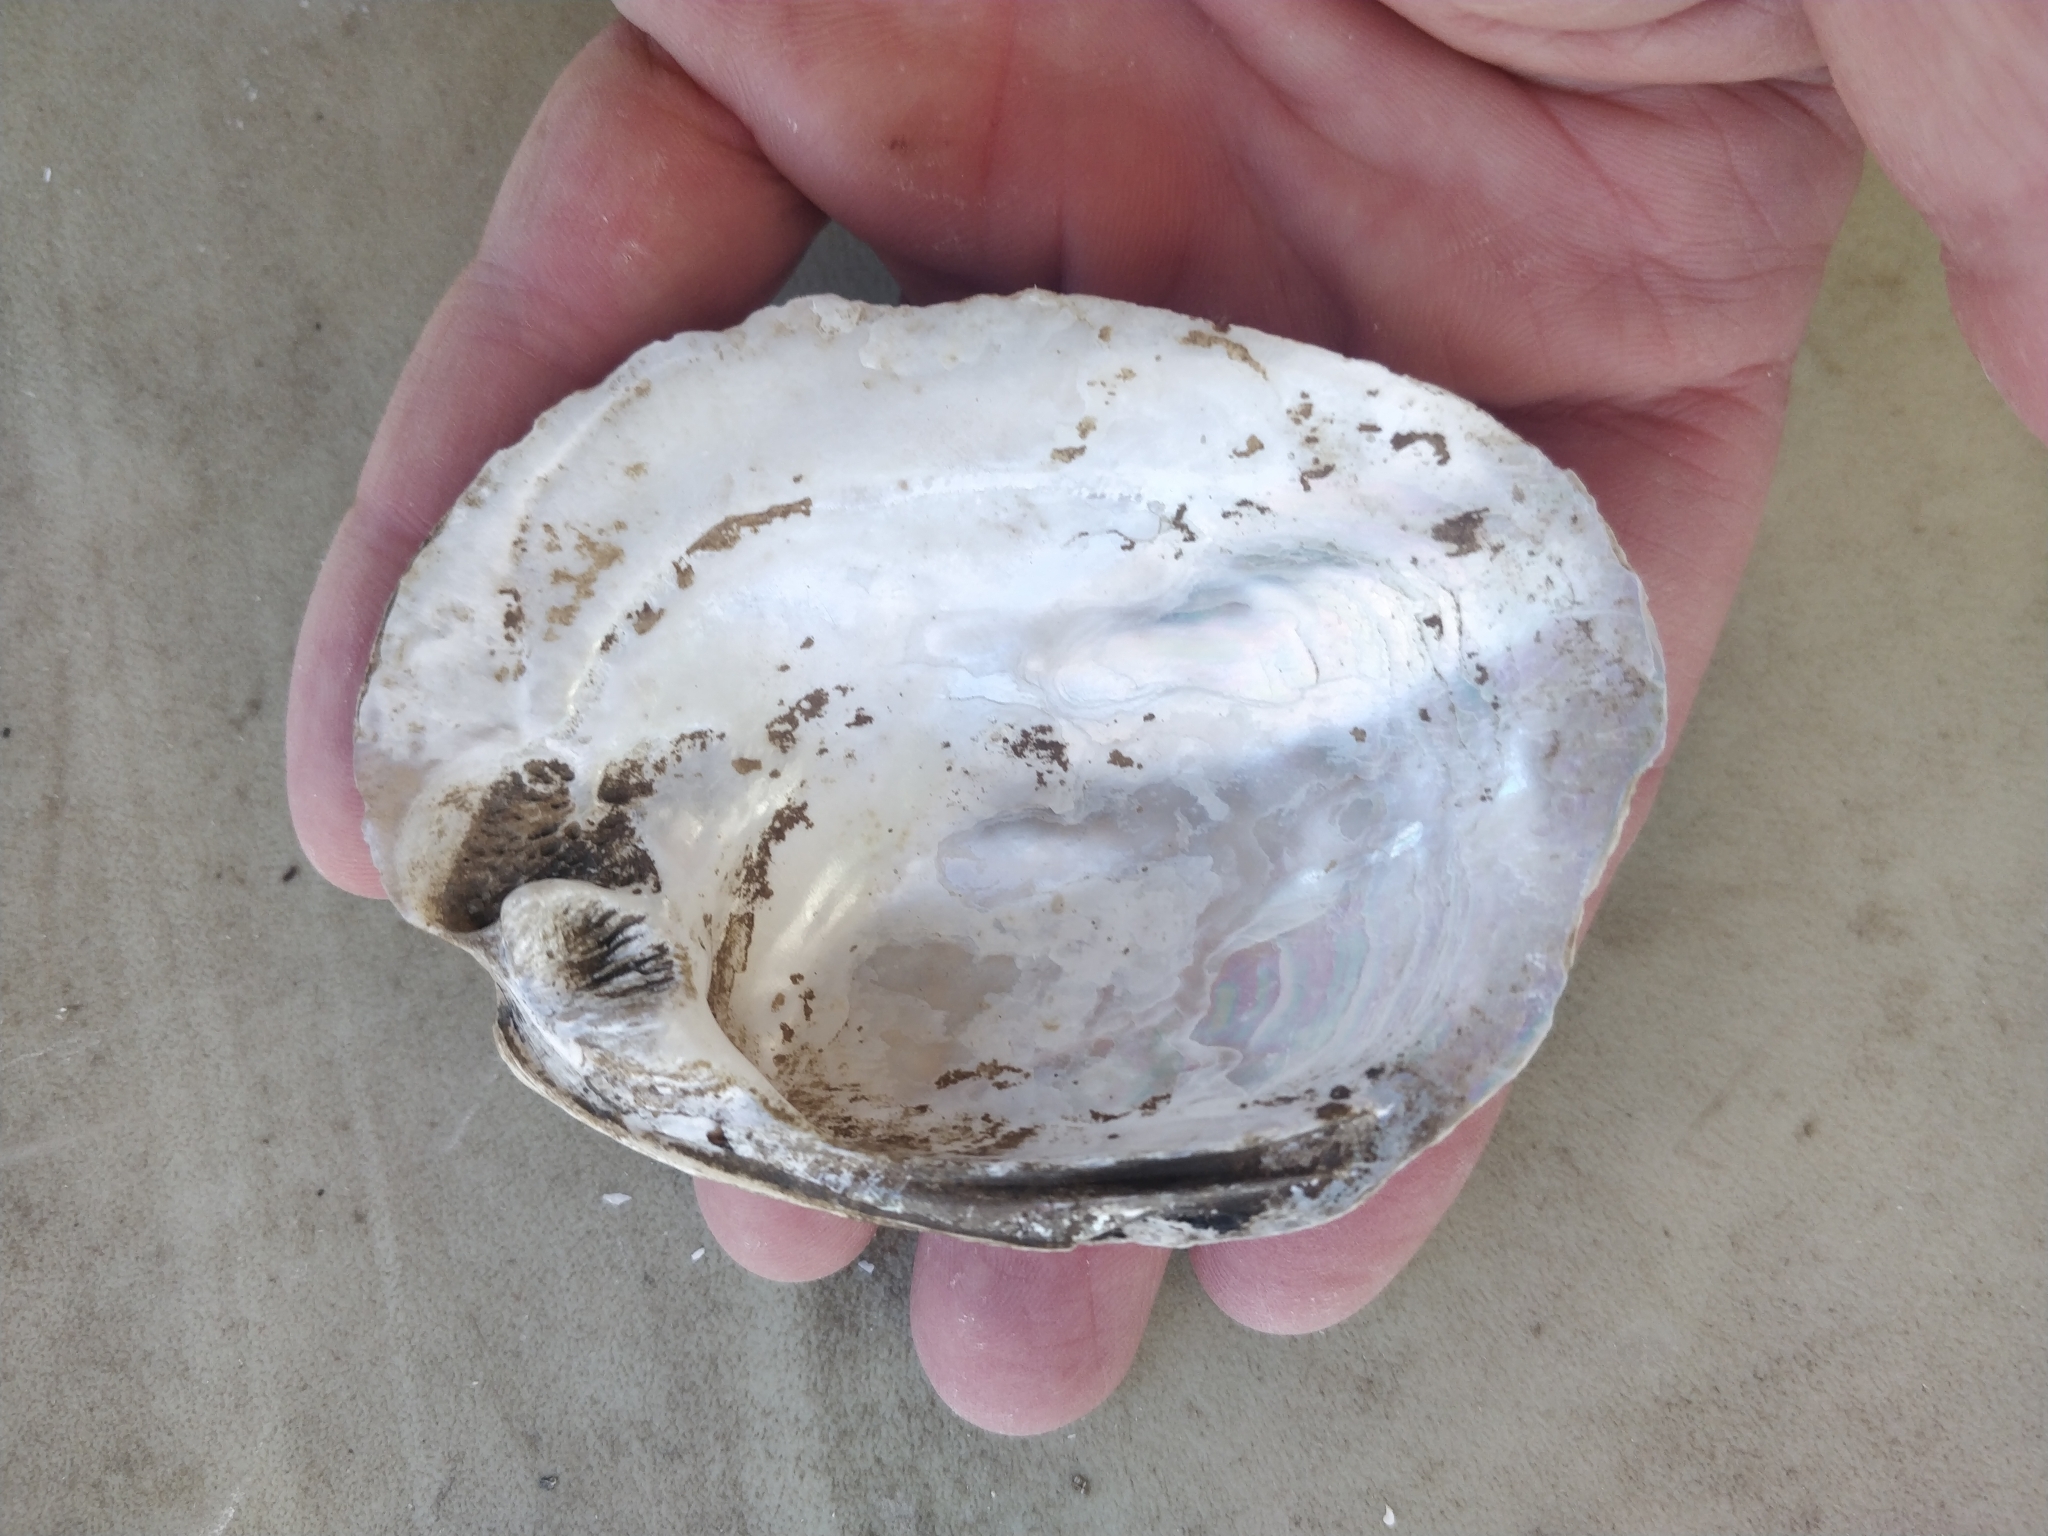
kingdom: Animalia
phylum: Mollusca
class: Bivalvia
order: Unionida
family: Unionidae
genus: Amblema
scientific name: Amblema plicata
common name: Threeridge
